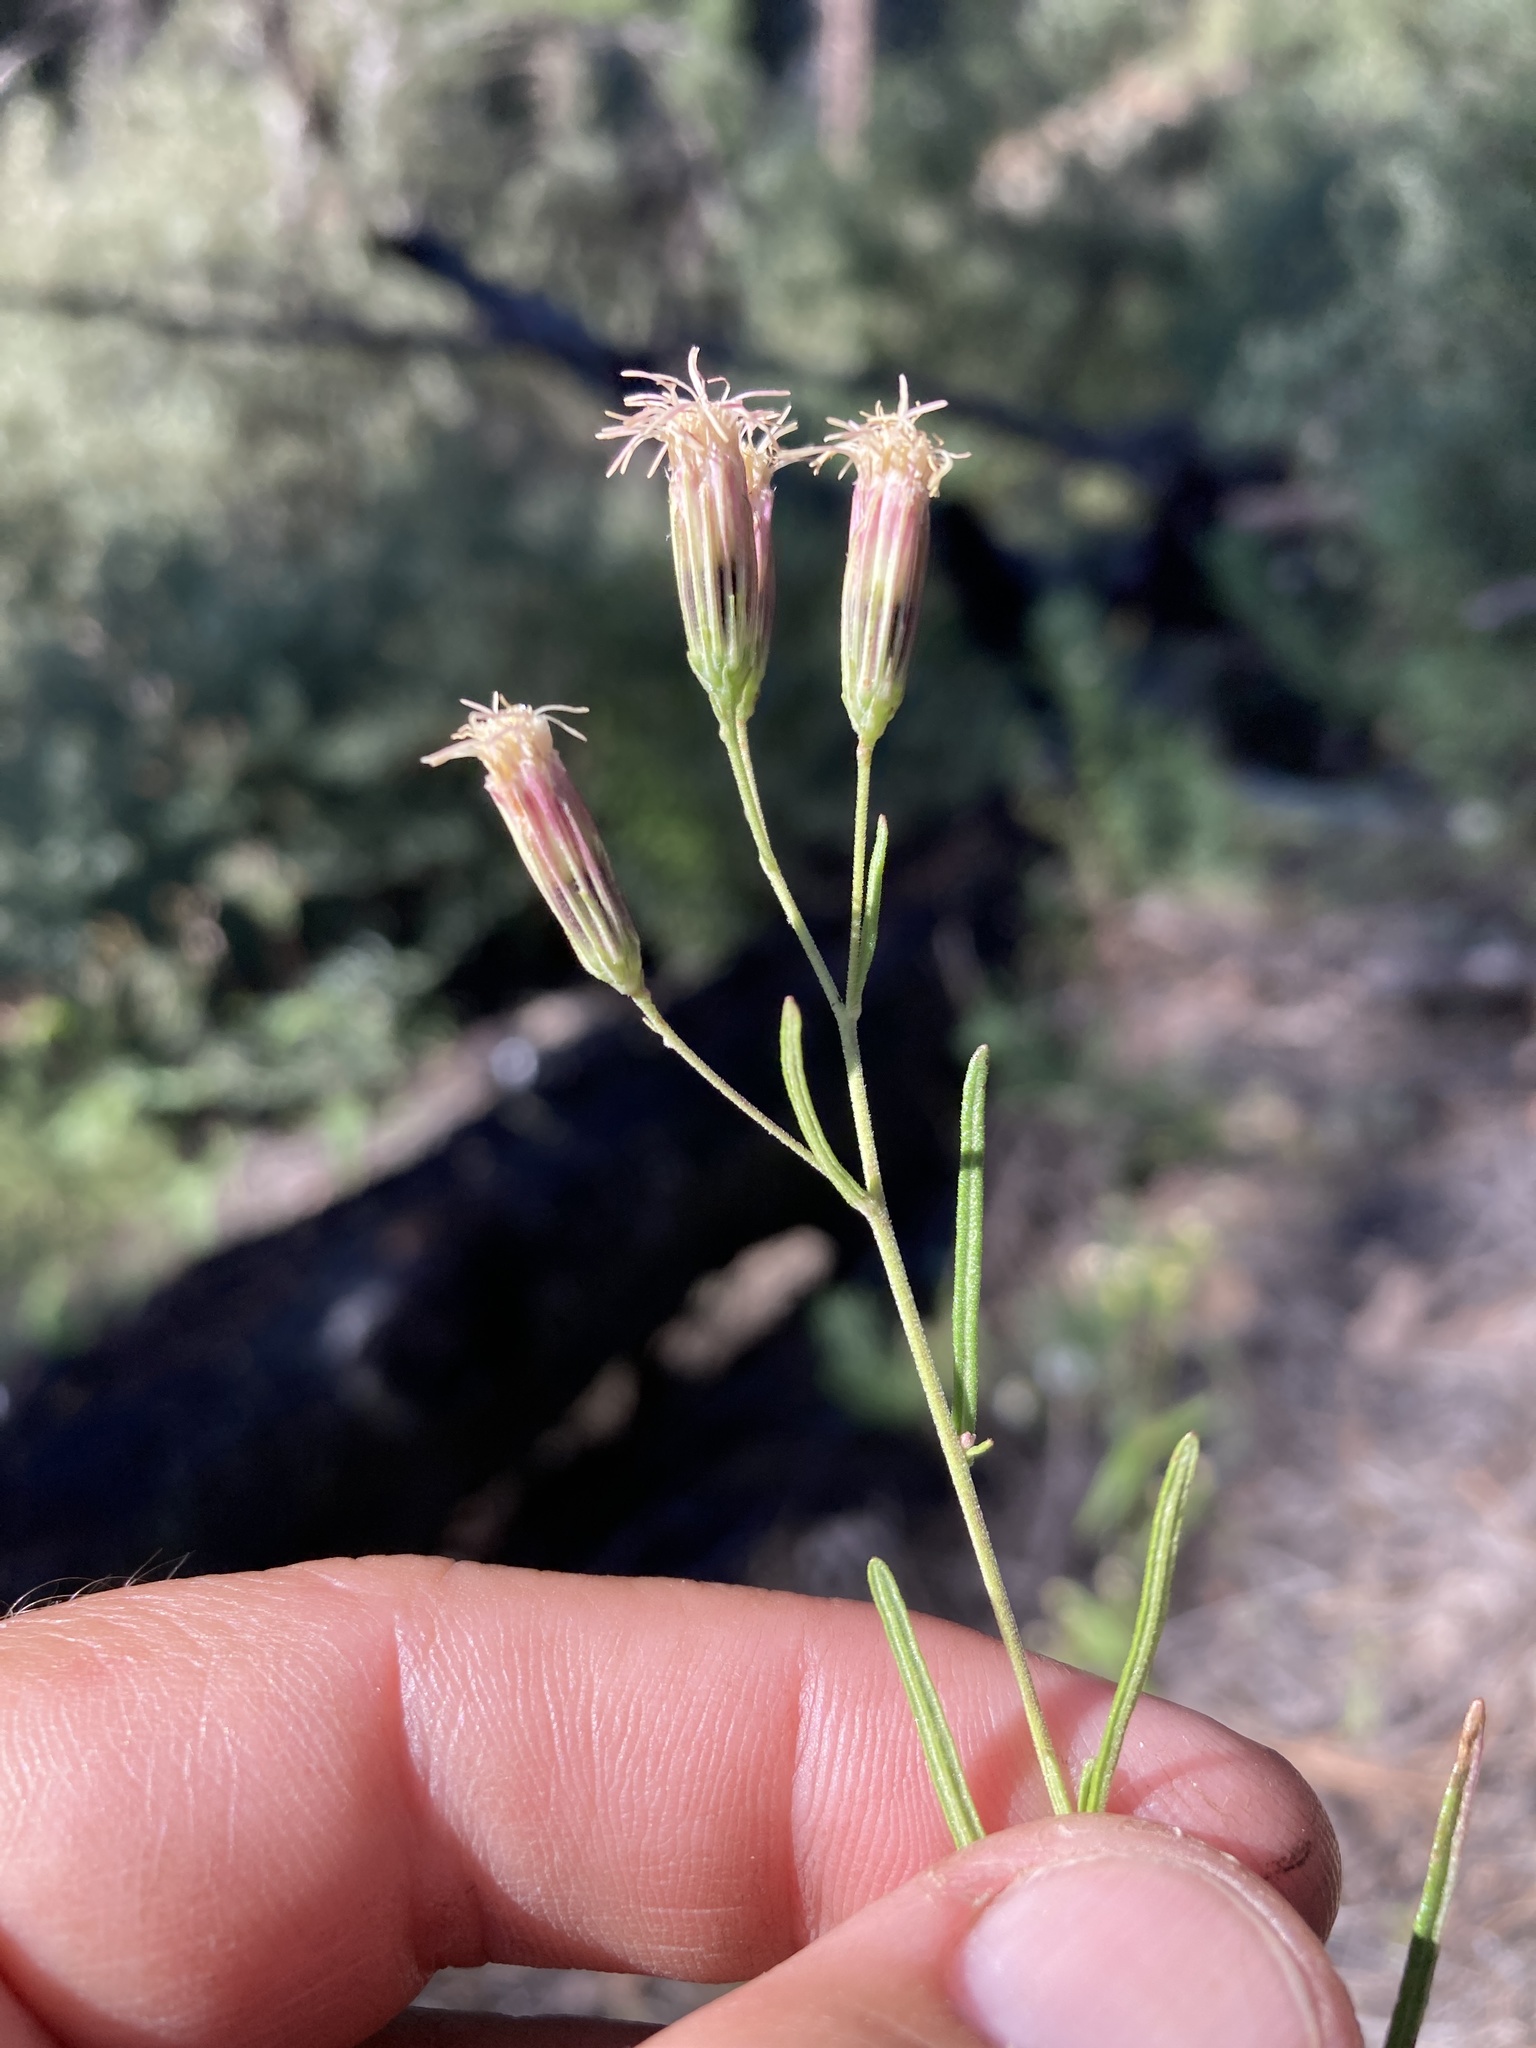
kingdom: Plantae
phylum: Tracheophyta
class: Magnoliopsida
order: Asterales
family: Asteraceae
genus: Brickellia
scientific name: Brickellia eupatorioides
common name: False boneset
